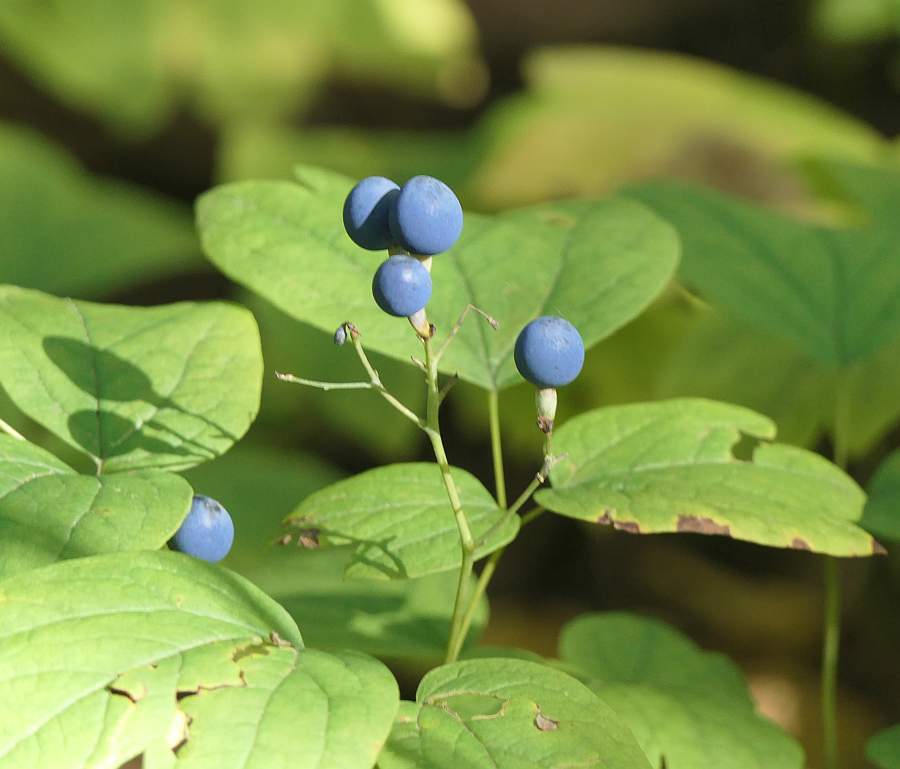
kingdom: Plantae
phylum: Tracheophyta
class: Magnoliopsida
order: Ranunculales
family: Berberidaceae
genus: Caulophyllum
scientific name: Caulophyllum thalictroides
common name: Blue cohosh
